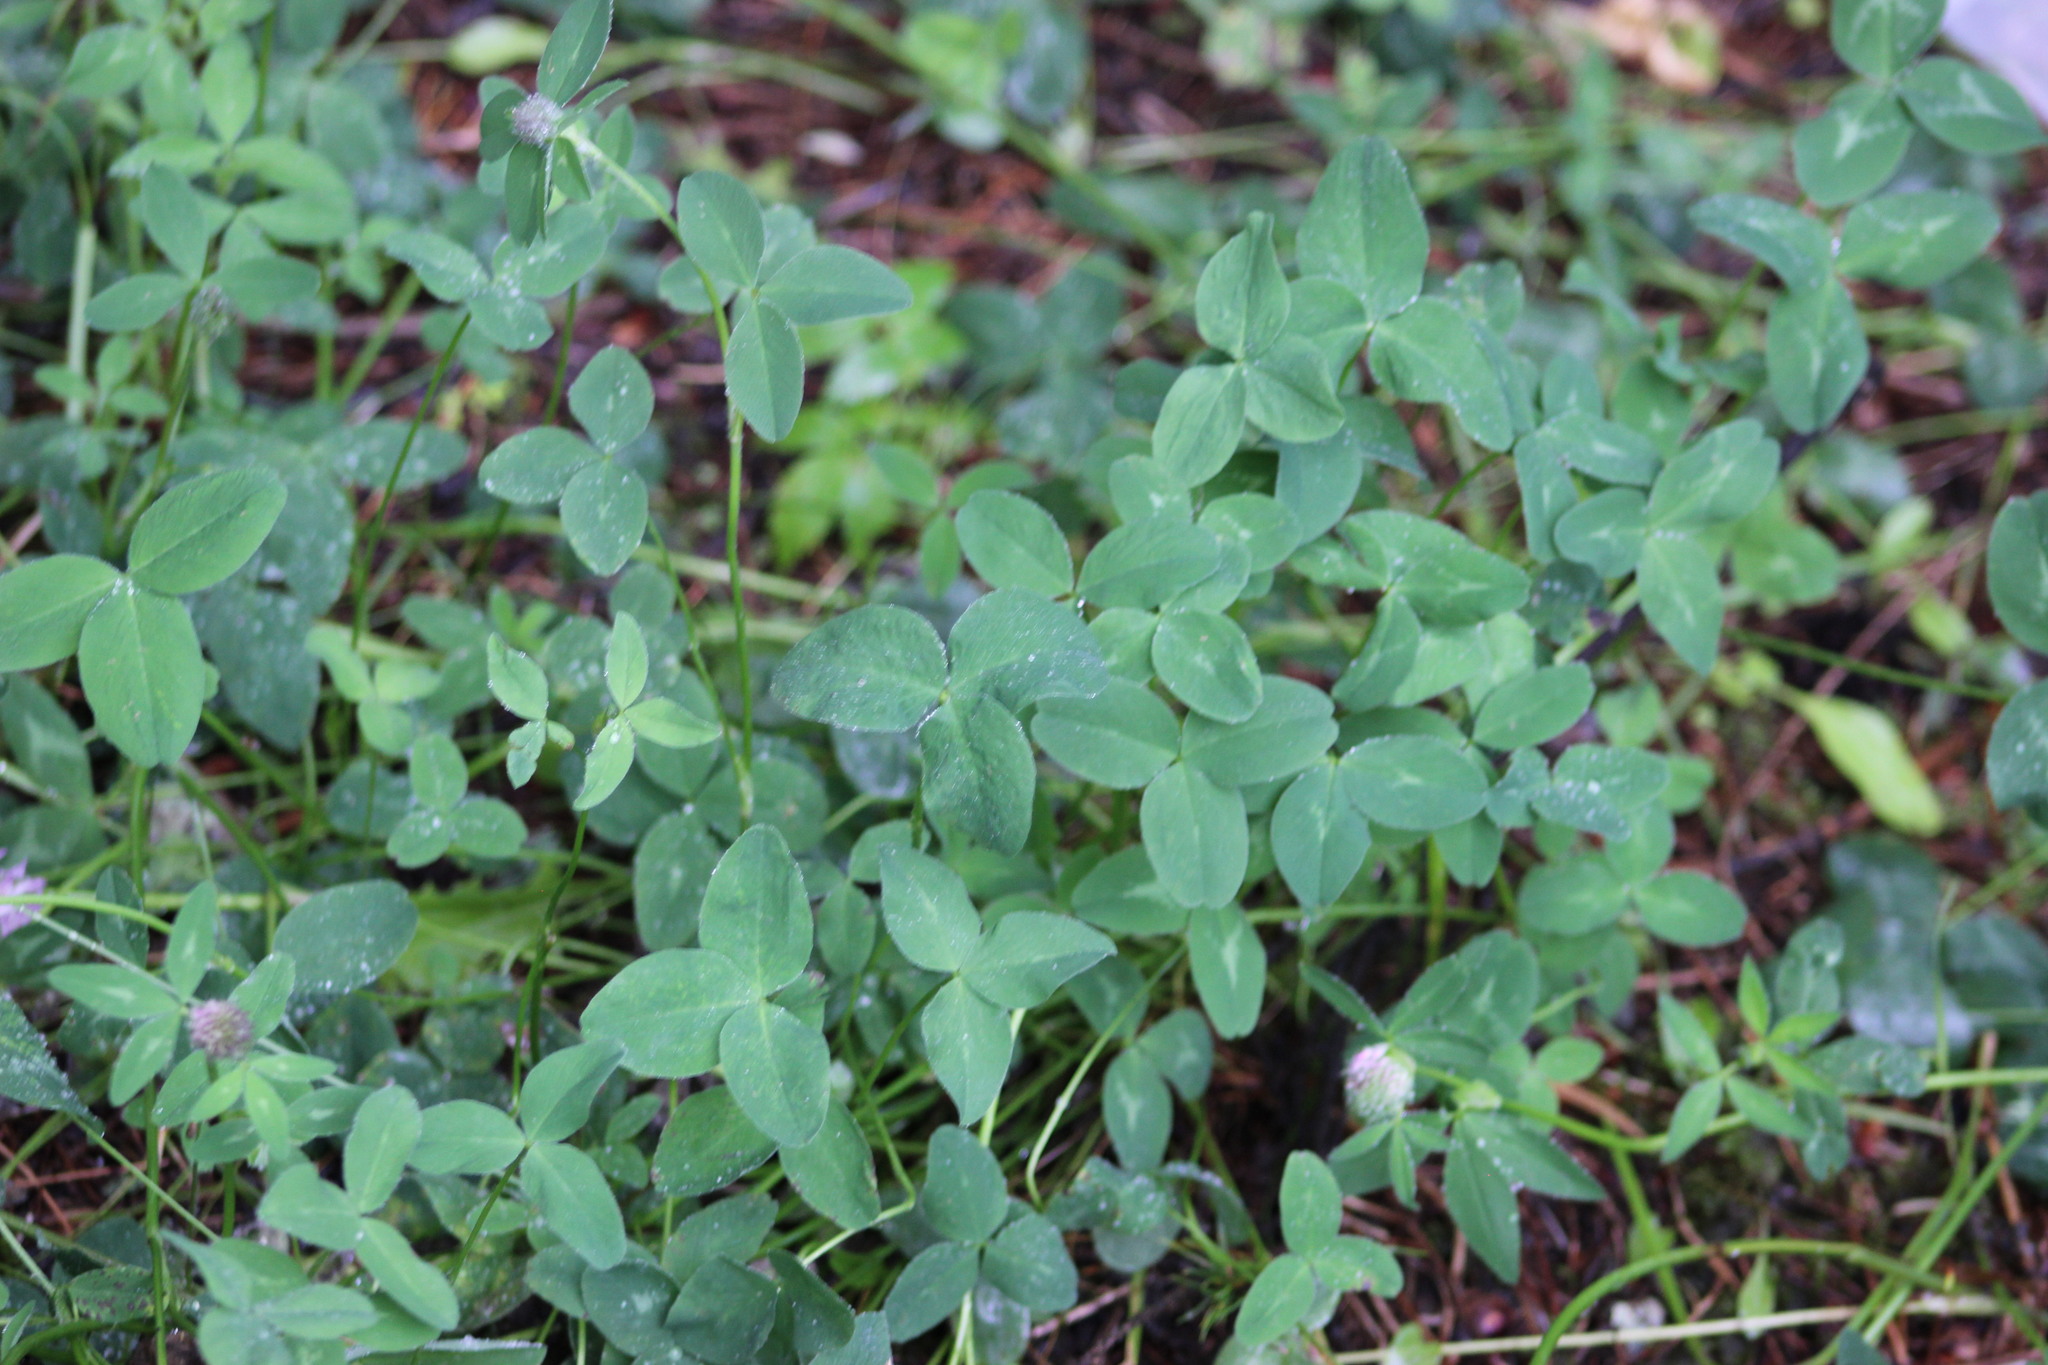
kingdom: Plantae
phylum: Tracheophyta
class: Magnoliopsida
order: Fabales
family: Fabaceae
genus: Trifolium
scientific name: Trifolium pratense
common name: Red clover
